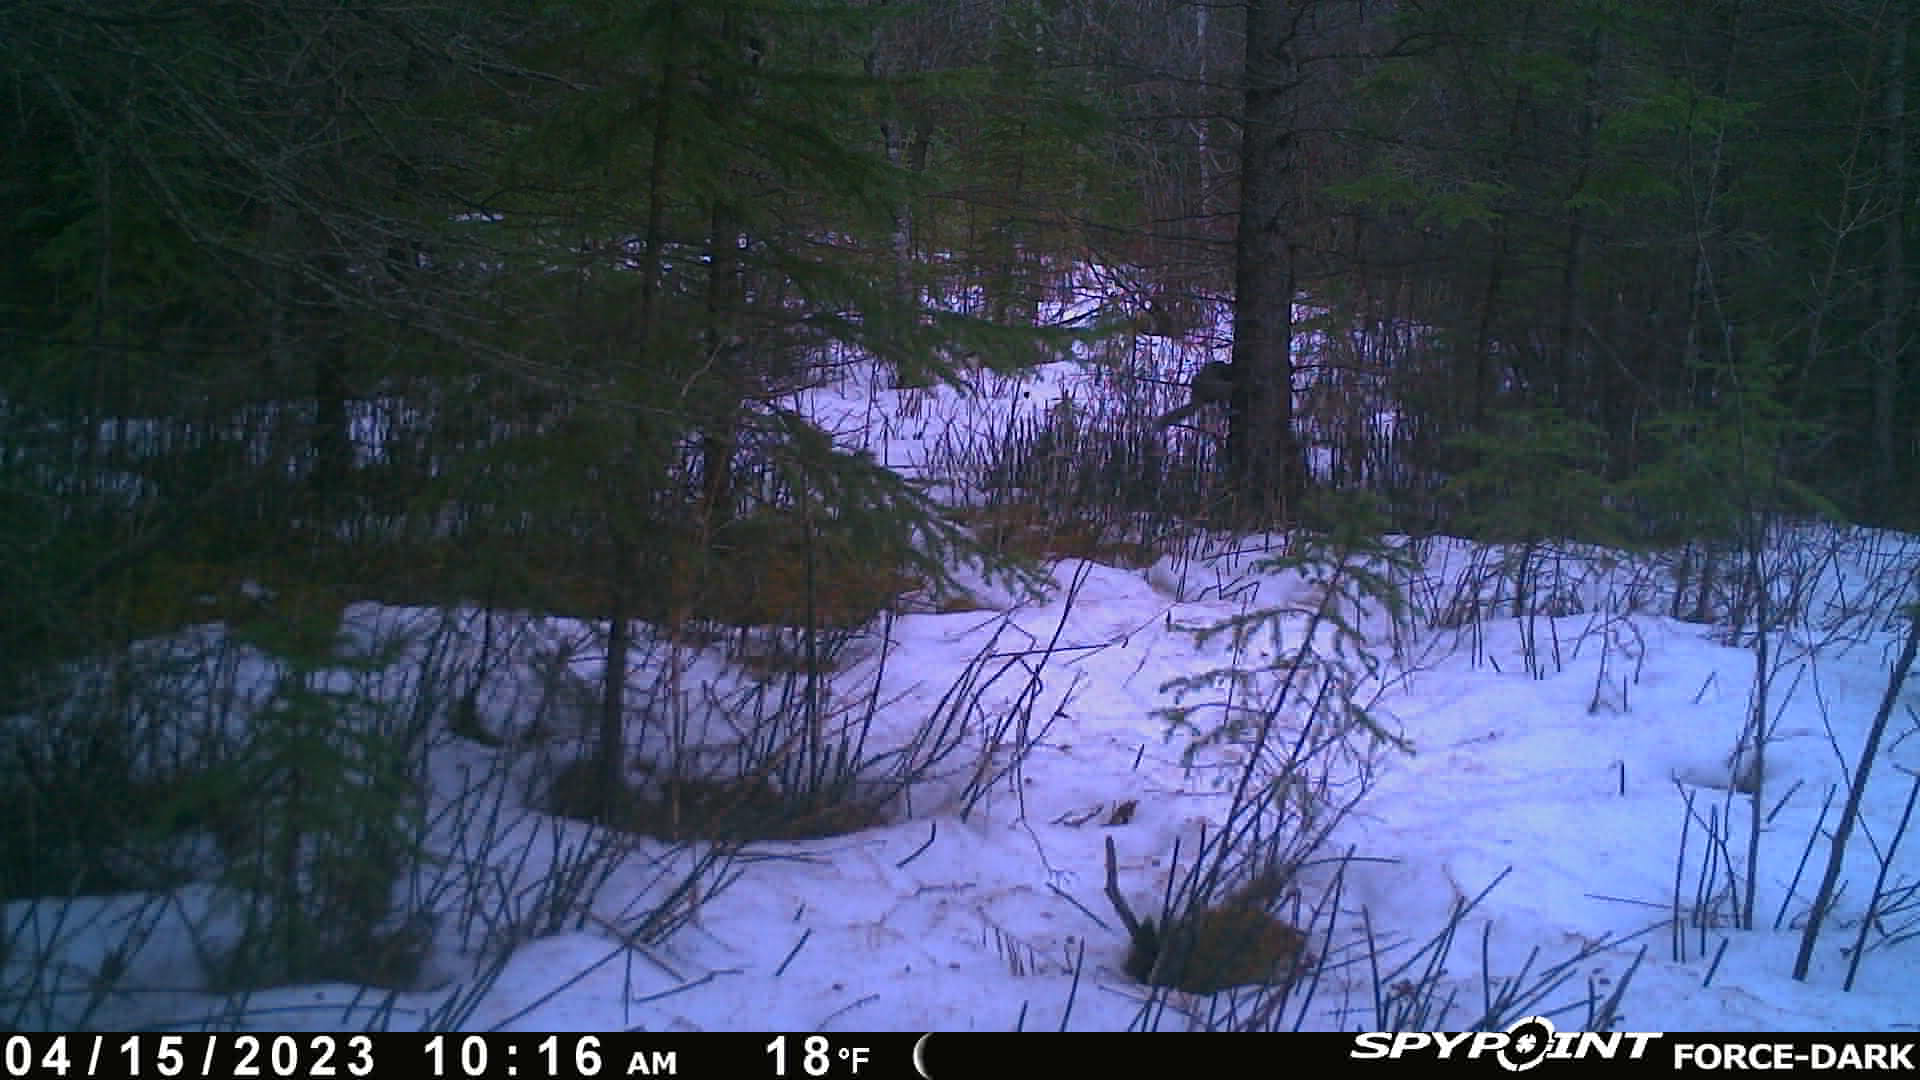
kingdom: Animalia
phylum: Chordata
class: Mammalia
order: Rodentia
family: Sciuridae
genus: Sciurus
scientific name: Sciurus carolinensis
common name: Eastern gray squirrel
